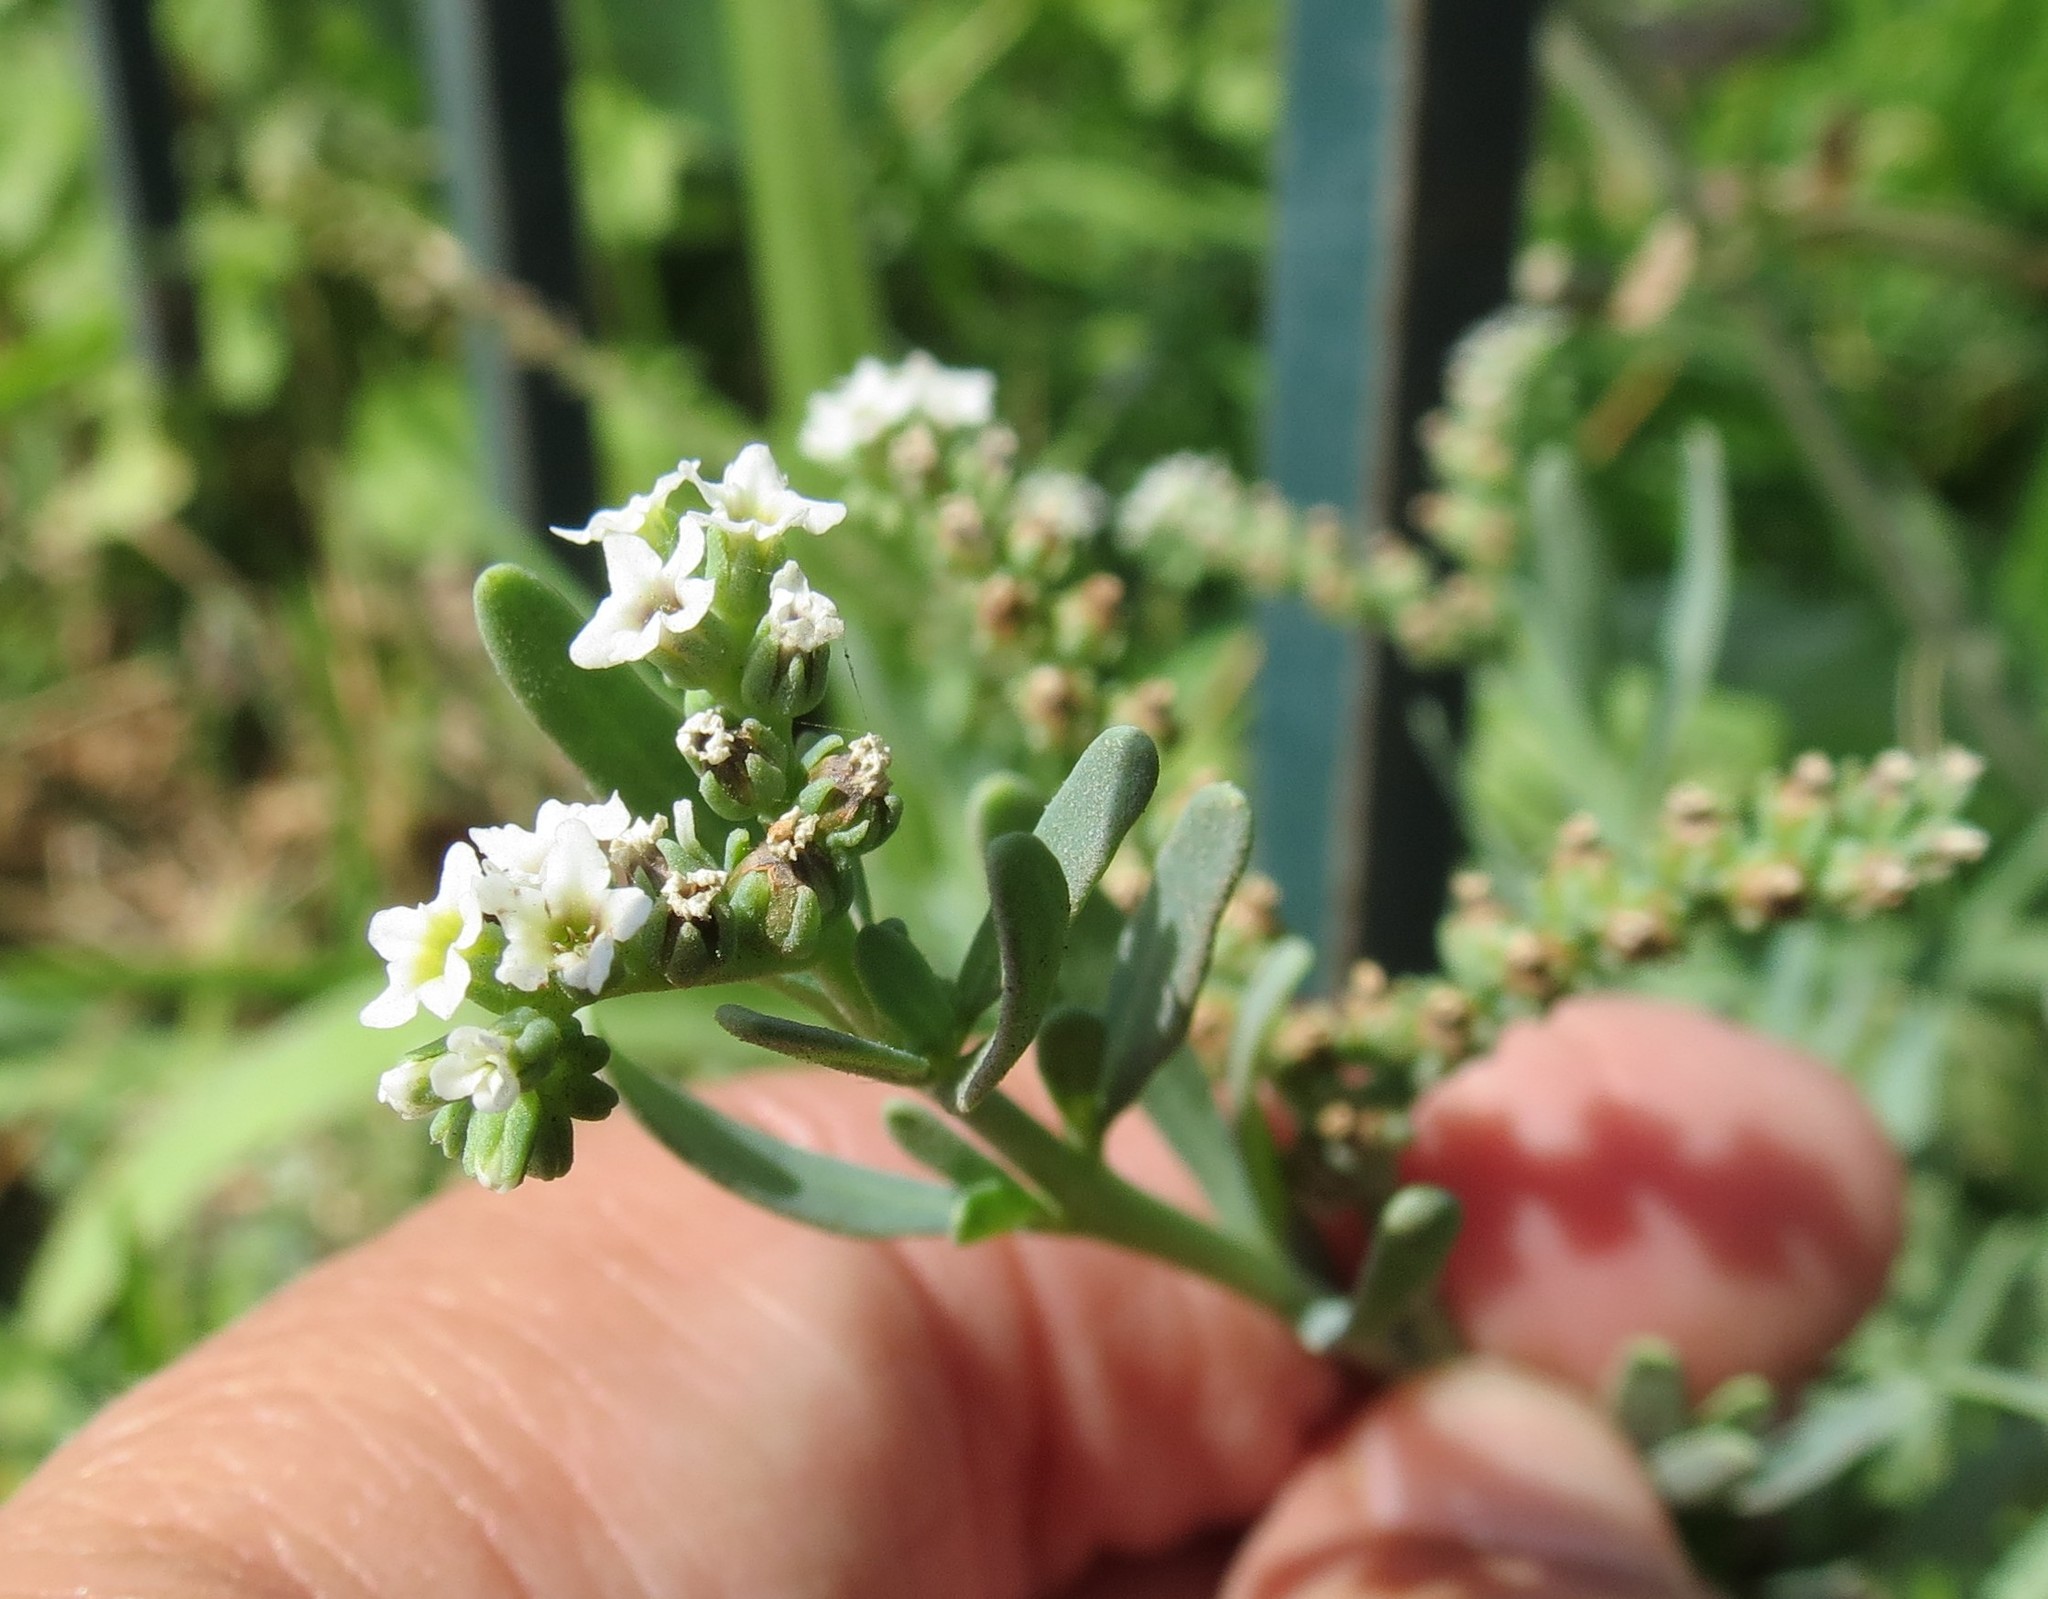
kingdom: Plantae
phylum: Tracheophyta
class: Magnoliopsida
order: Boraginales
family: Heliotropiaceae
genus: Heliotropium
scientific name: Heliotropium curassavicum
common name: Seaside heliotrope
